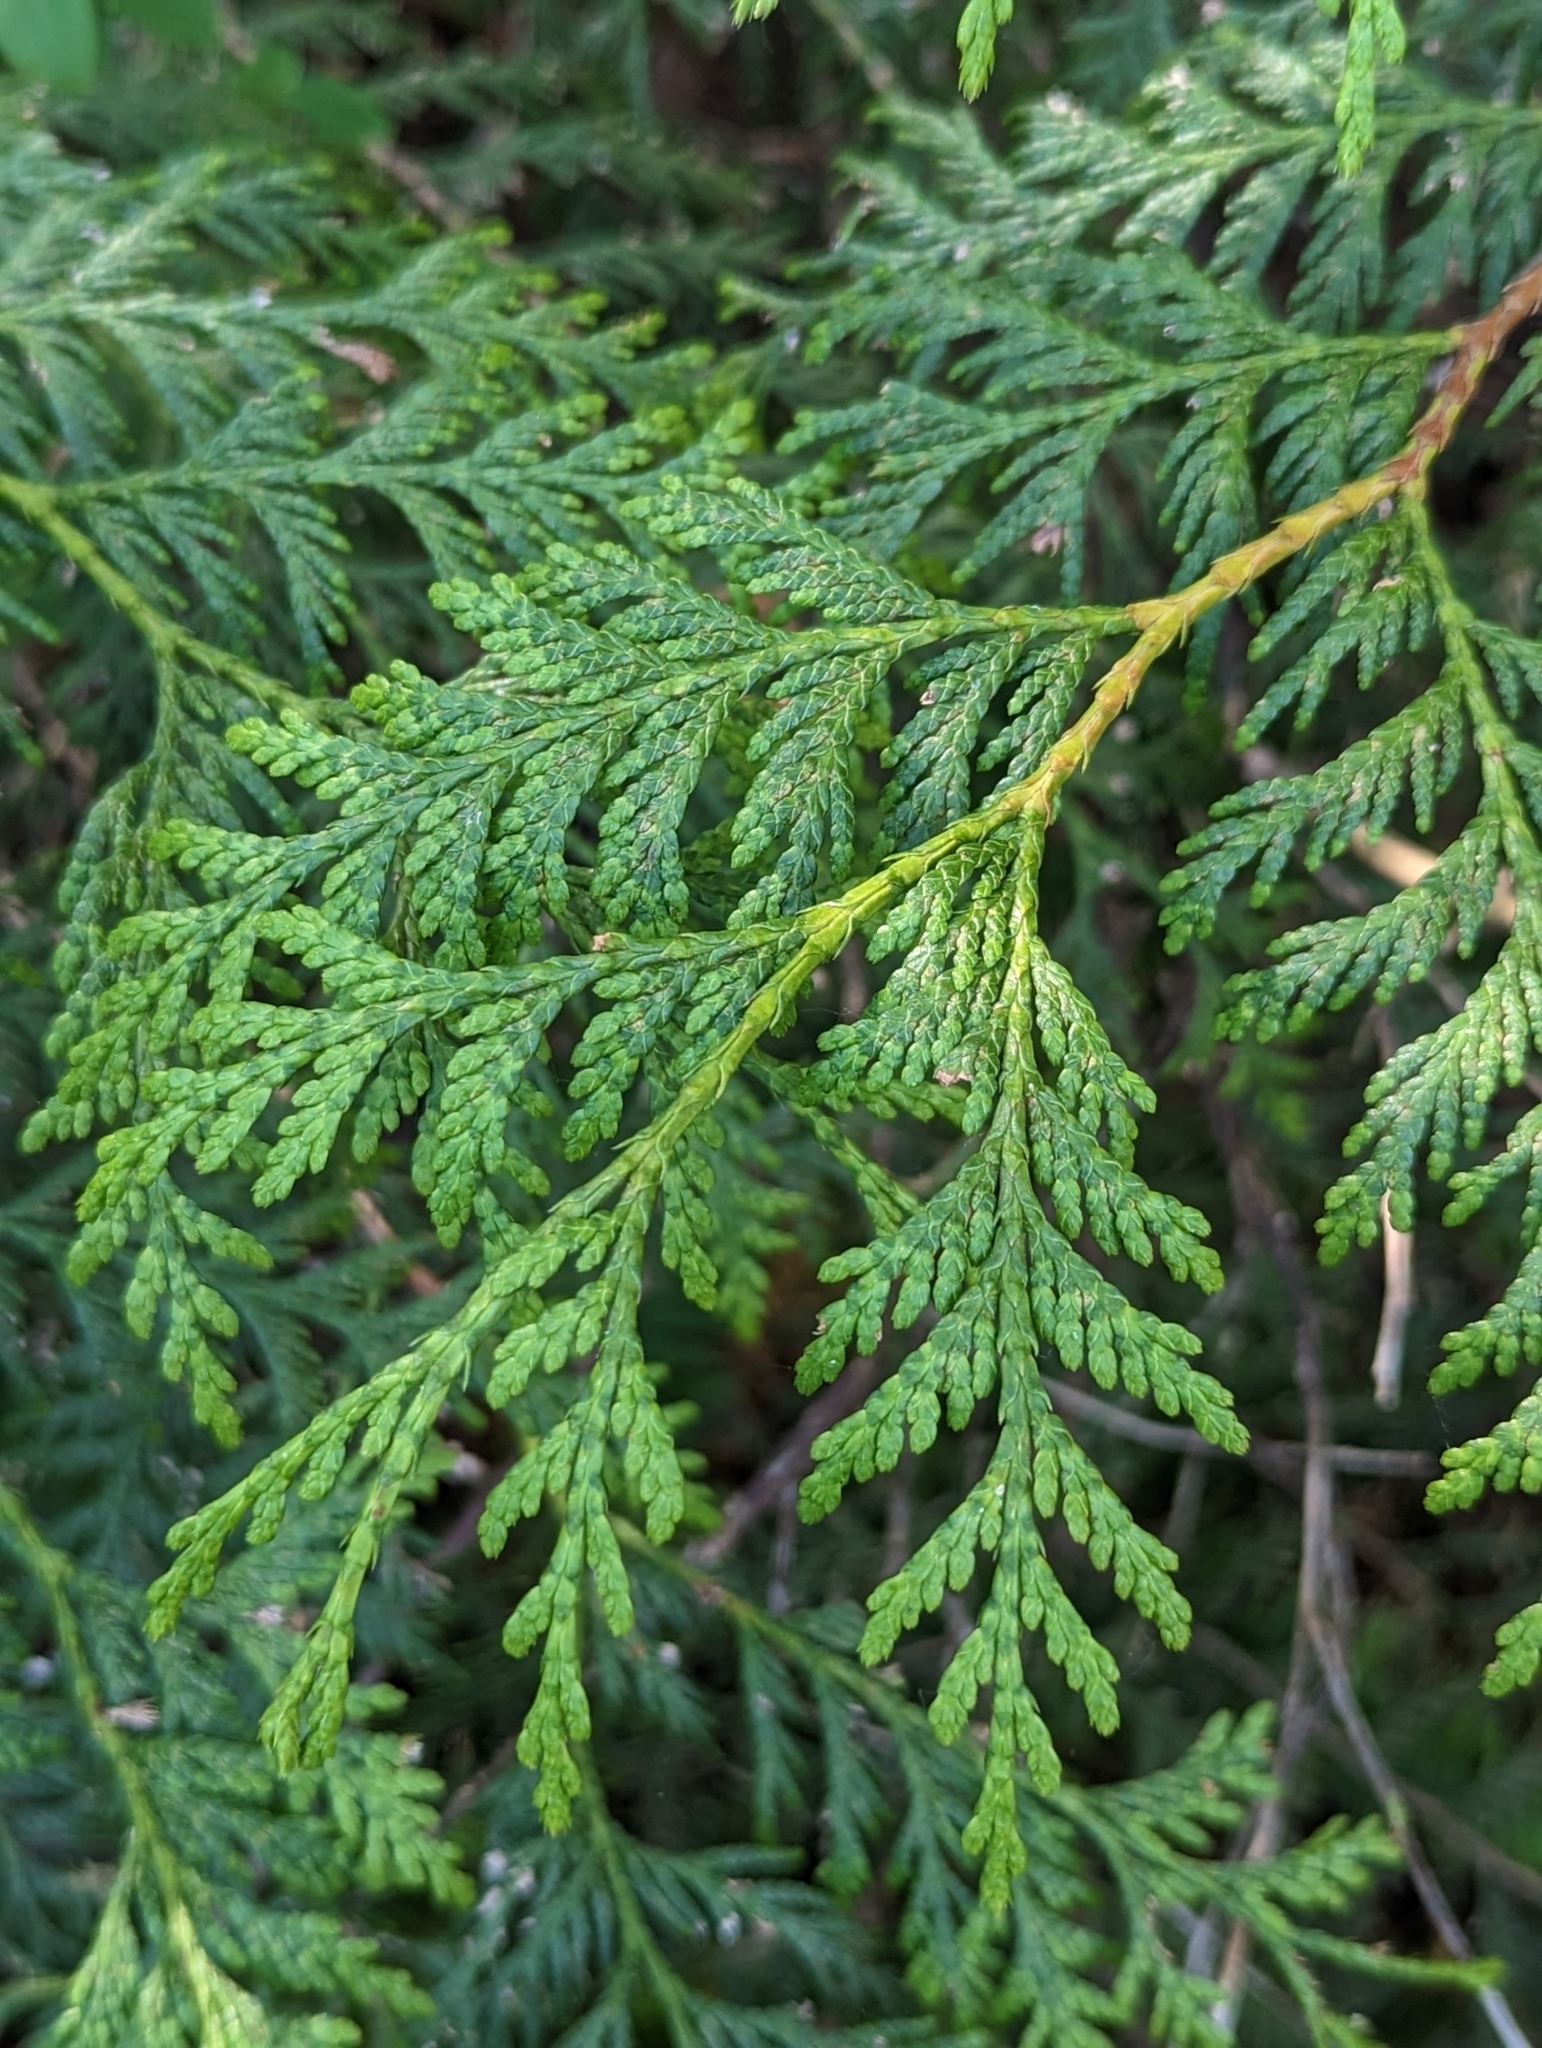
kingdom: Plantae
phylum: Tracheophyta
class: Pinopsida
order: Pinales
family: Cupressaceae
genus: Thuja
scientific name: Thuja plicata
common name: Western red-cedar
